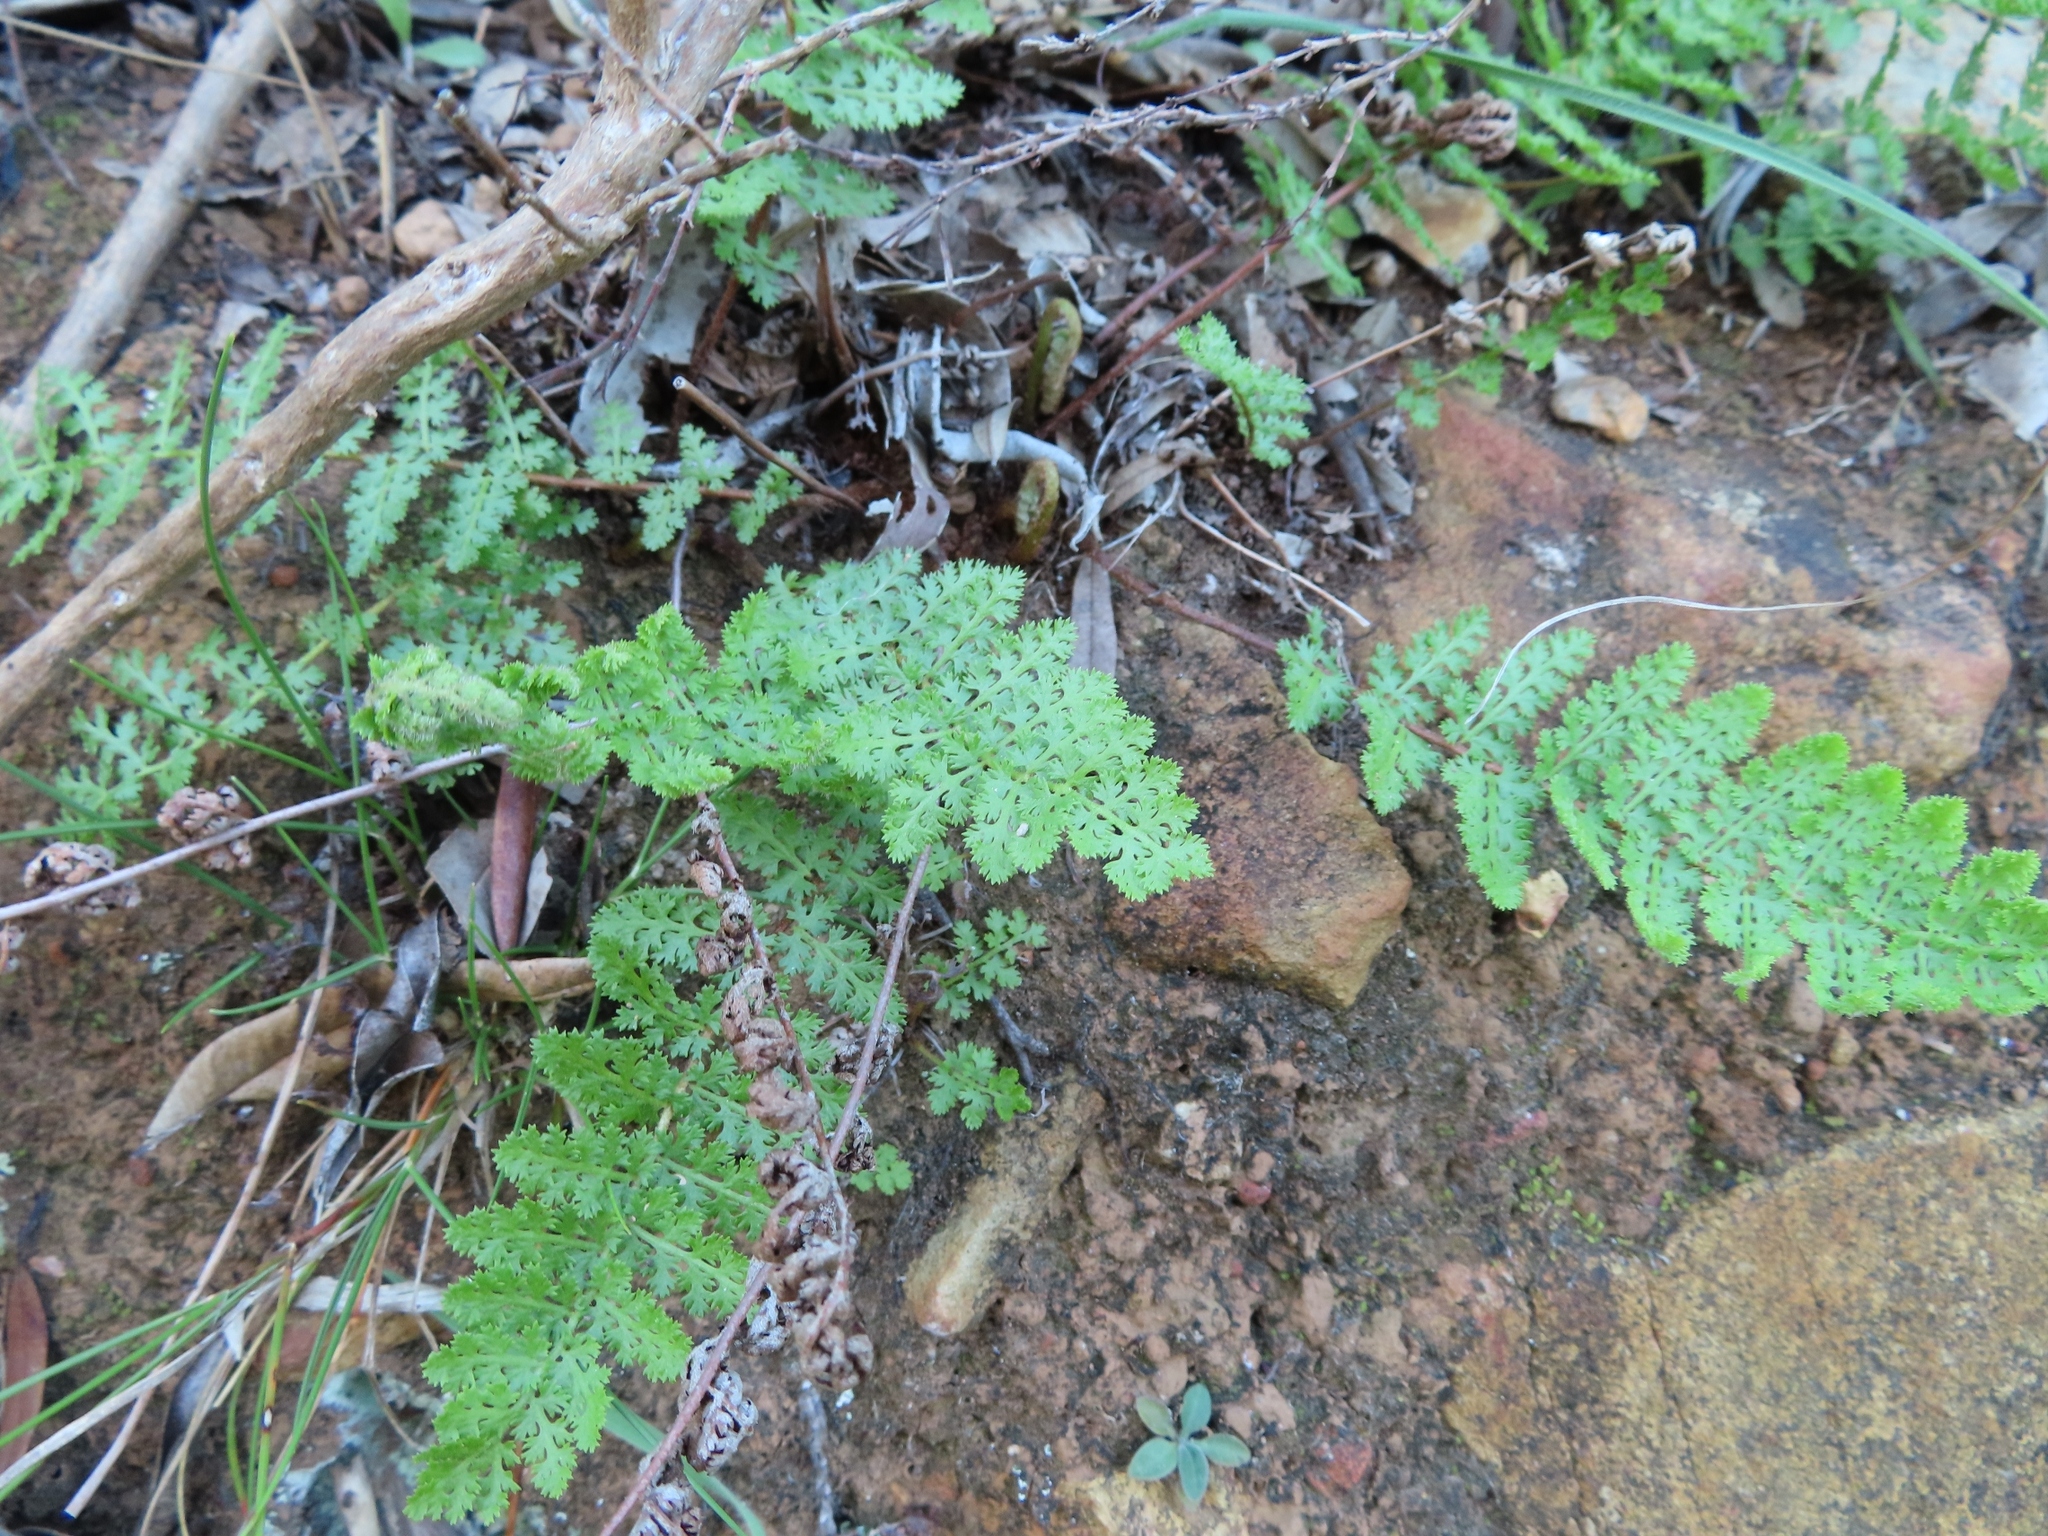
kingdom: Plantae
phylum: Tracheophyta
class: Polypodiopsida
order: Schizaeales
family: Anemiaceae
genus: Anemia
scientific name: Anemia caffrorum
